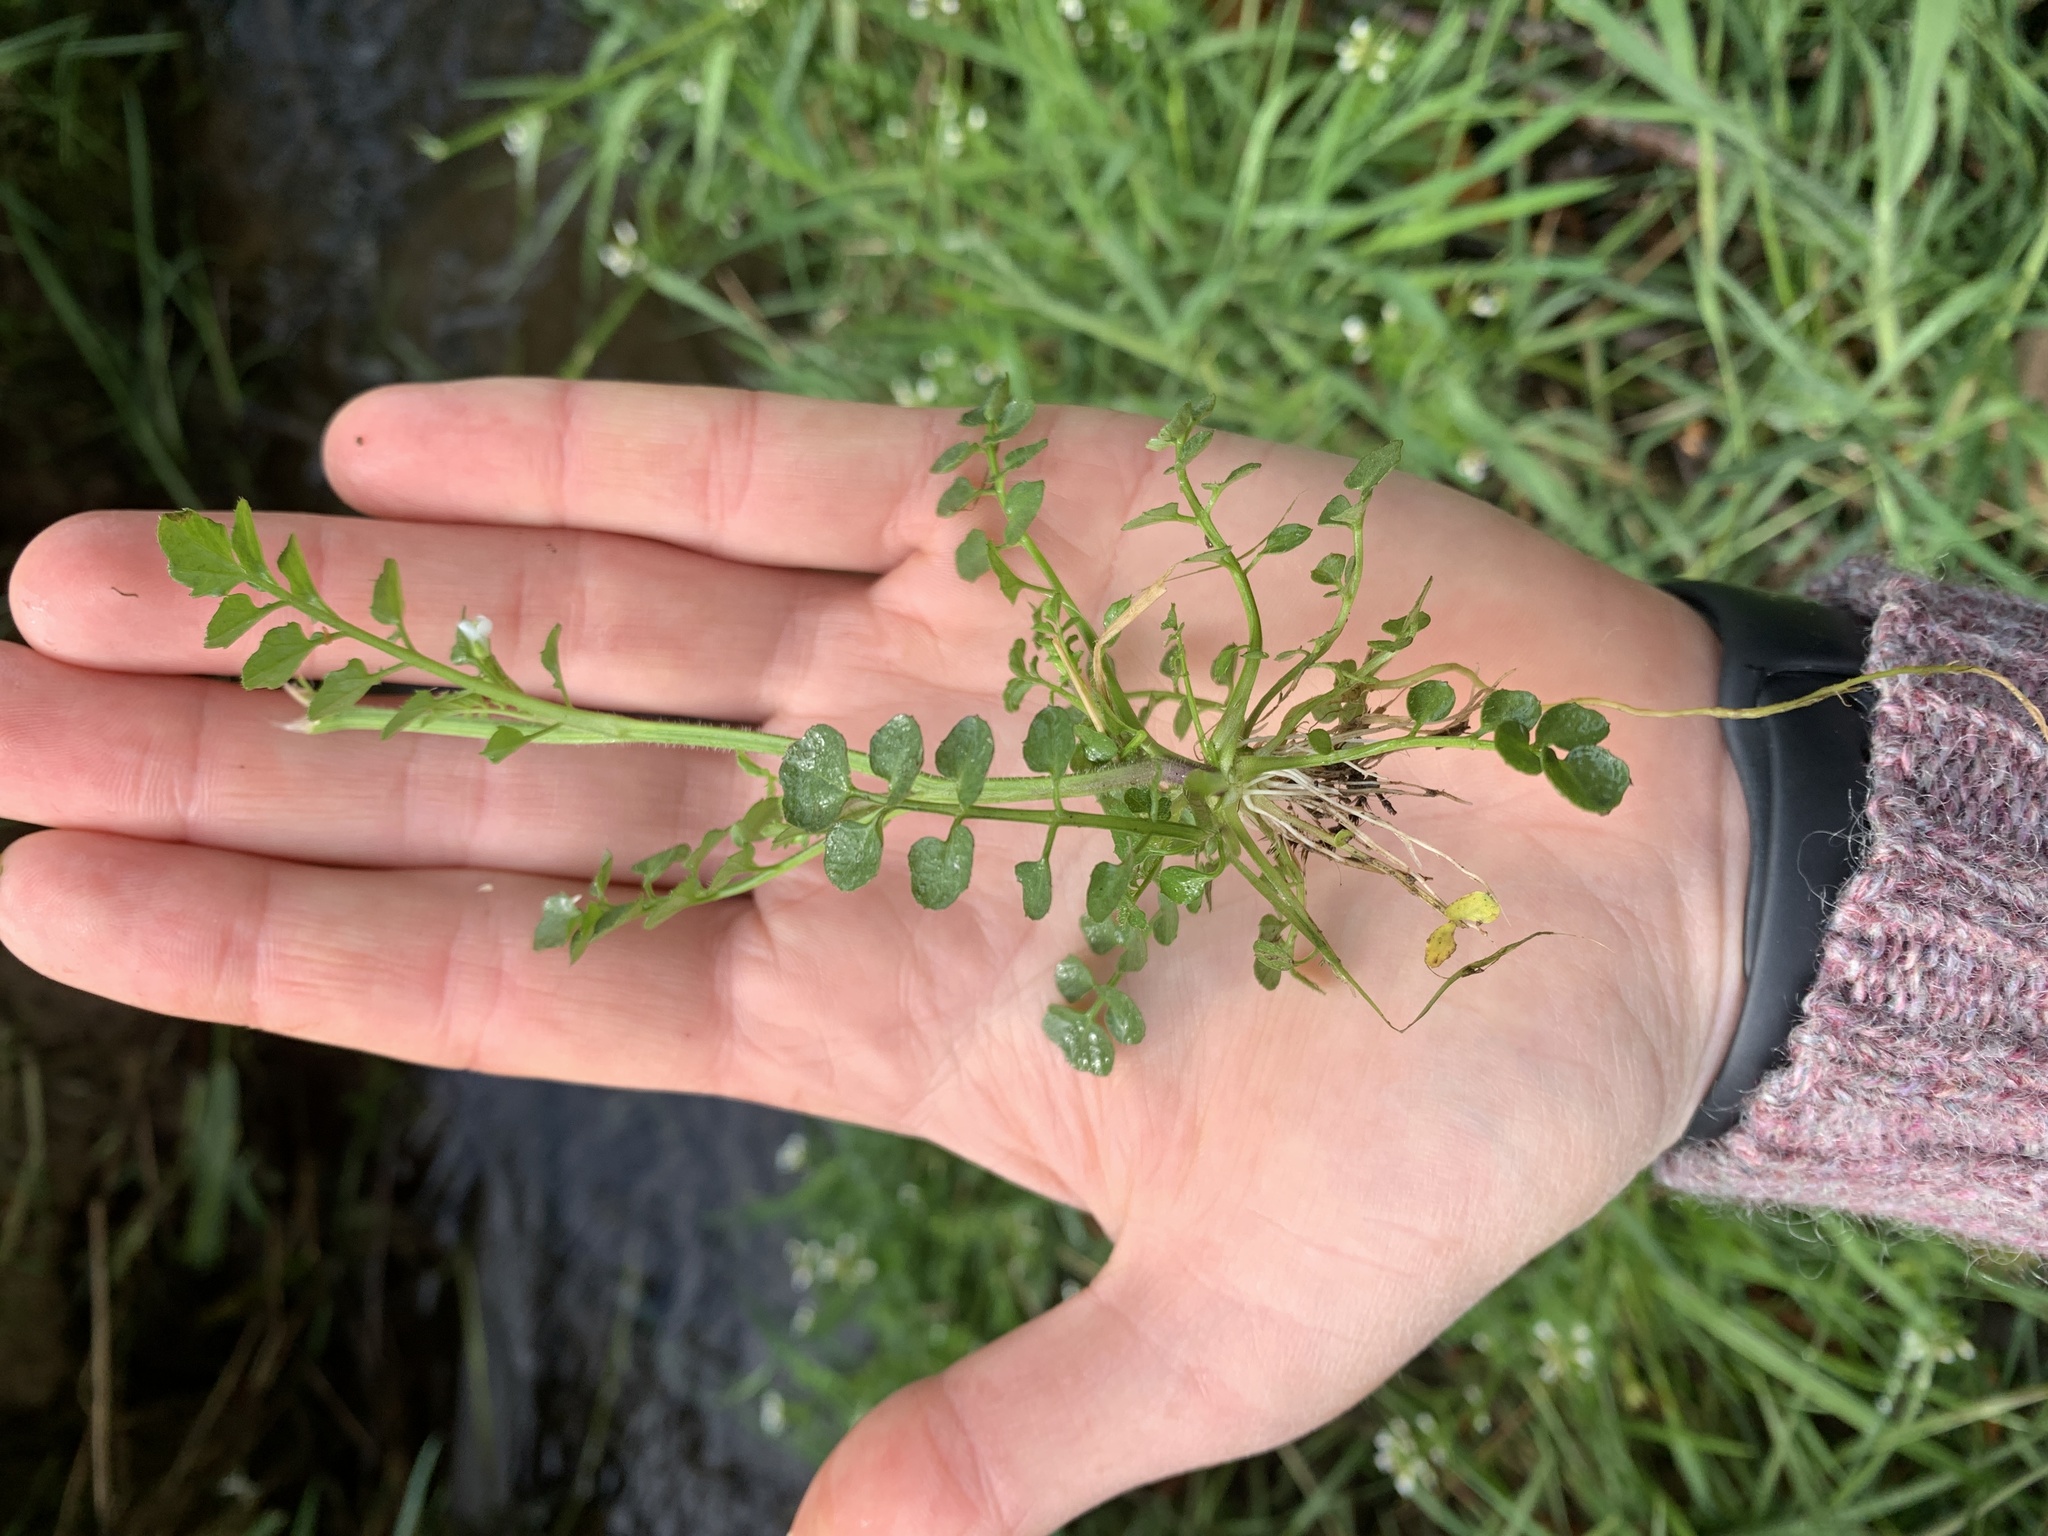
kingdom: Plantae
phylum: Tracheophyta
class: Magnoliopsida
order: Brassicales
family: Brassicaceae
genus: Cardamine
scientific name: Cardamine flexuosa
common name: Woodland bittercress
